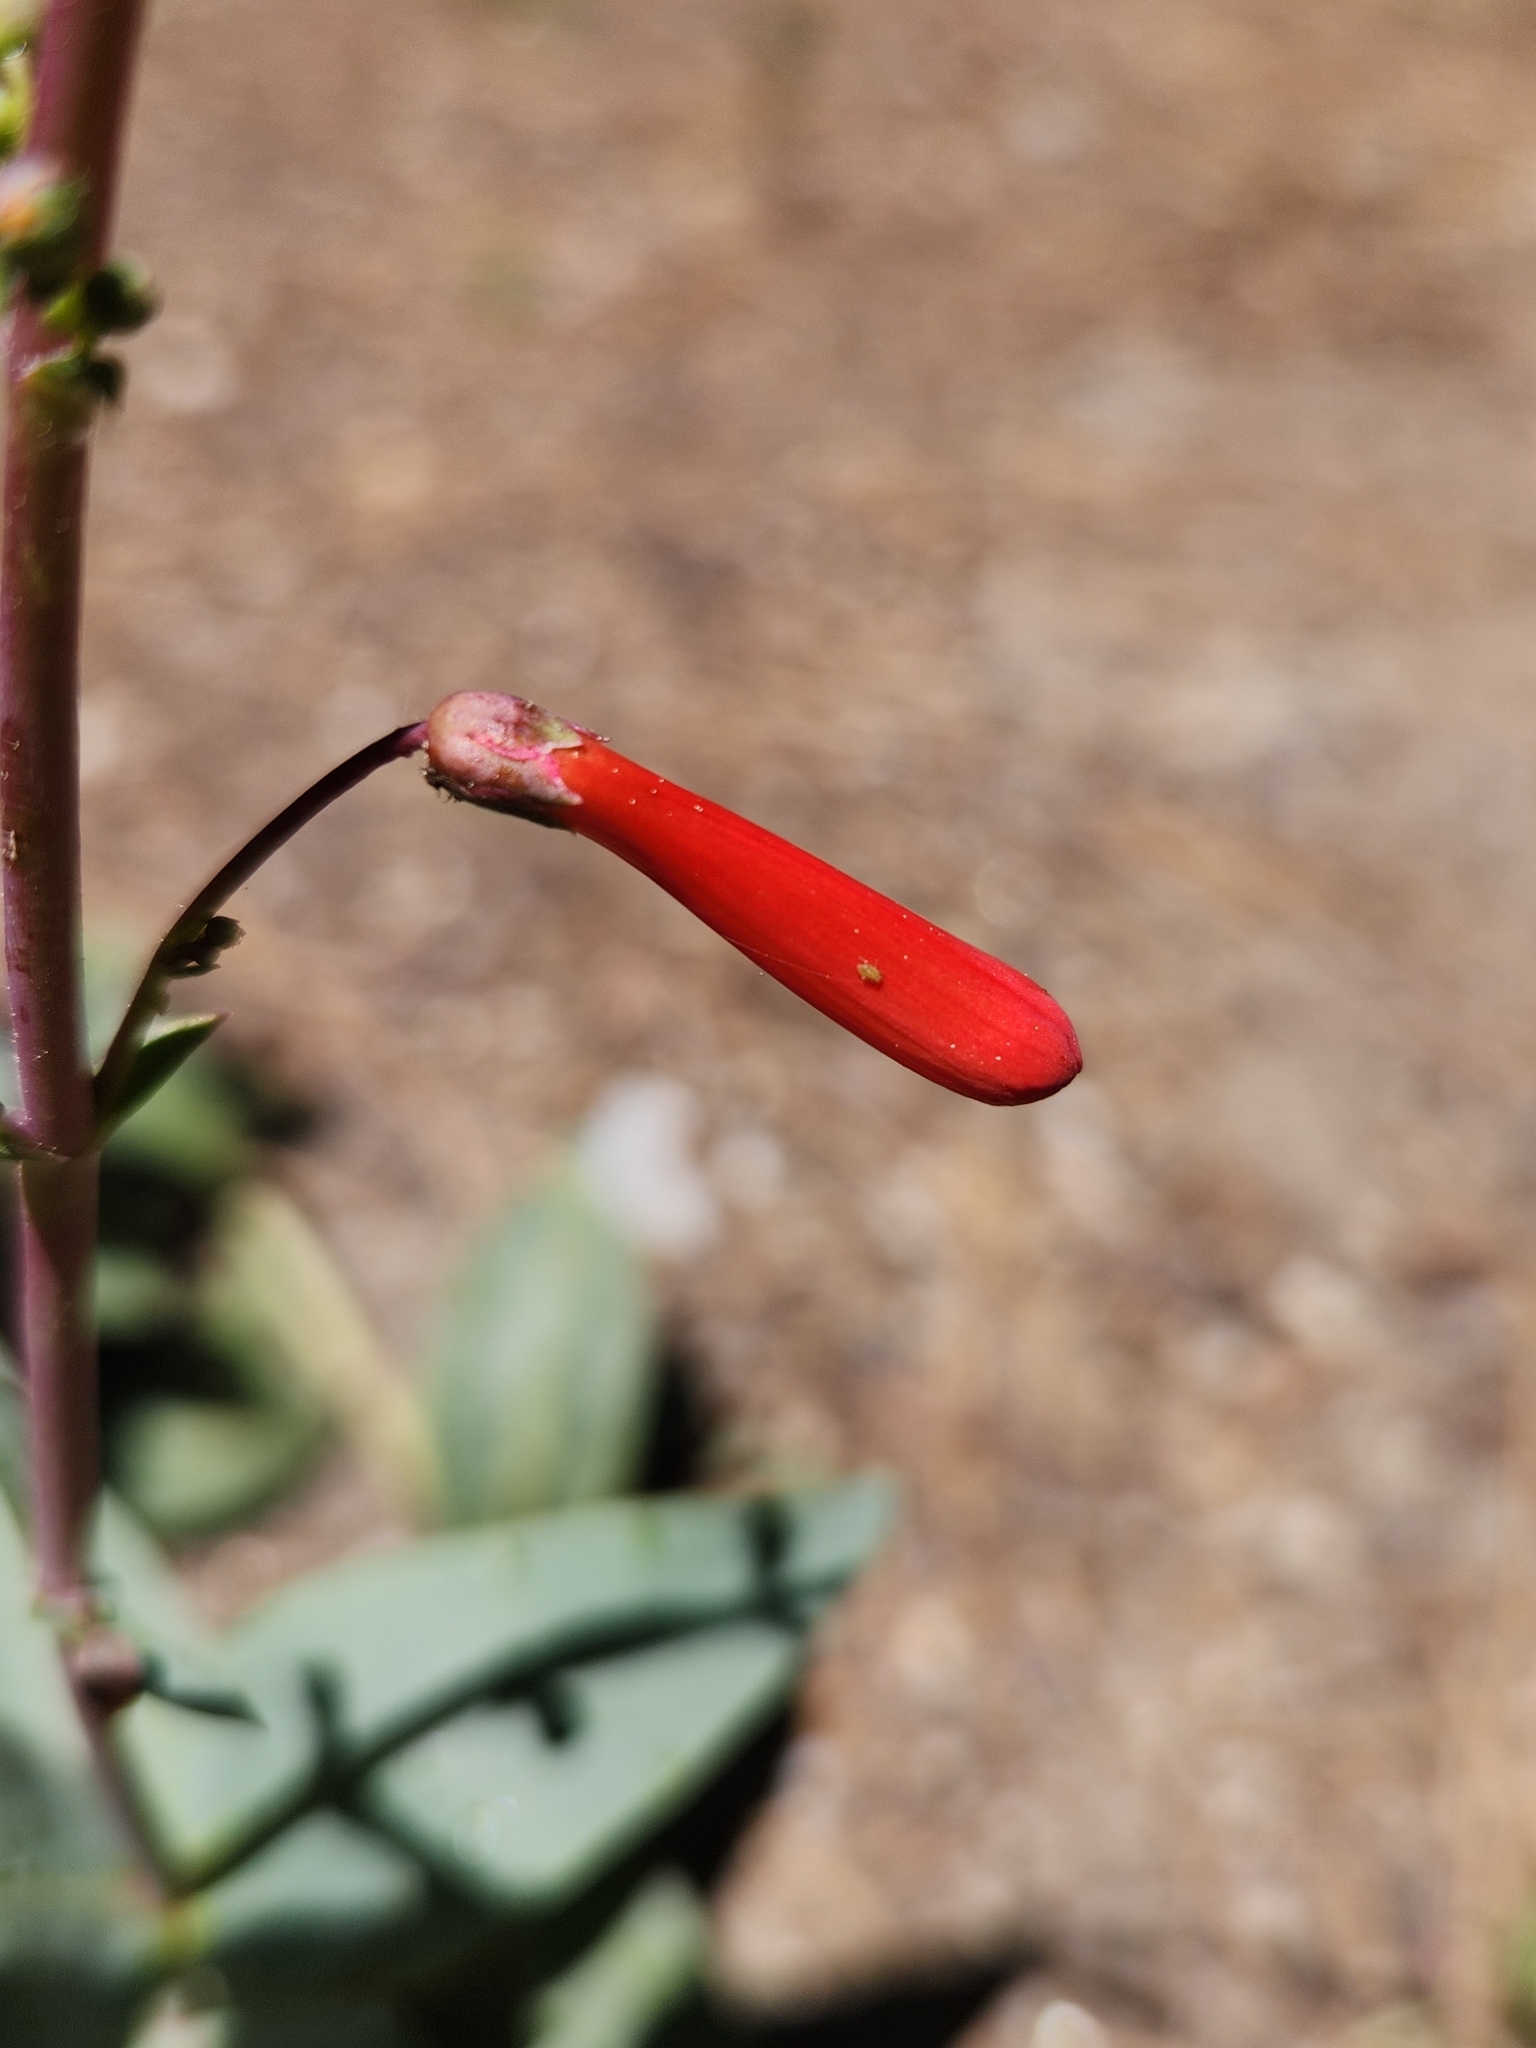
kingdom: Plantae
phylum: Tracheophyta
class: Magnoliopsida
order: Lamiales
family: Plantaginaceae
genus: Penstemon
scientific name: Penstemon centranthifolius
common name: Scarlet bugler
